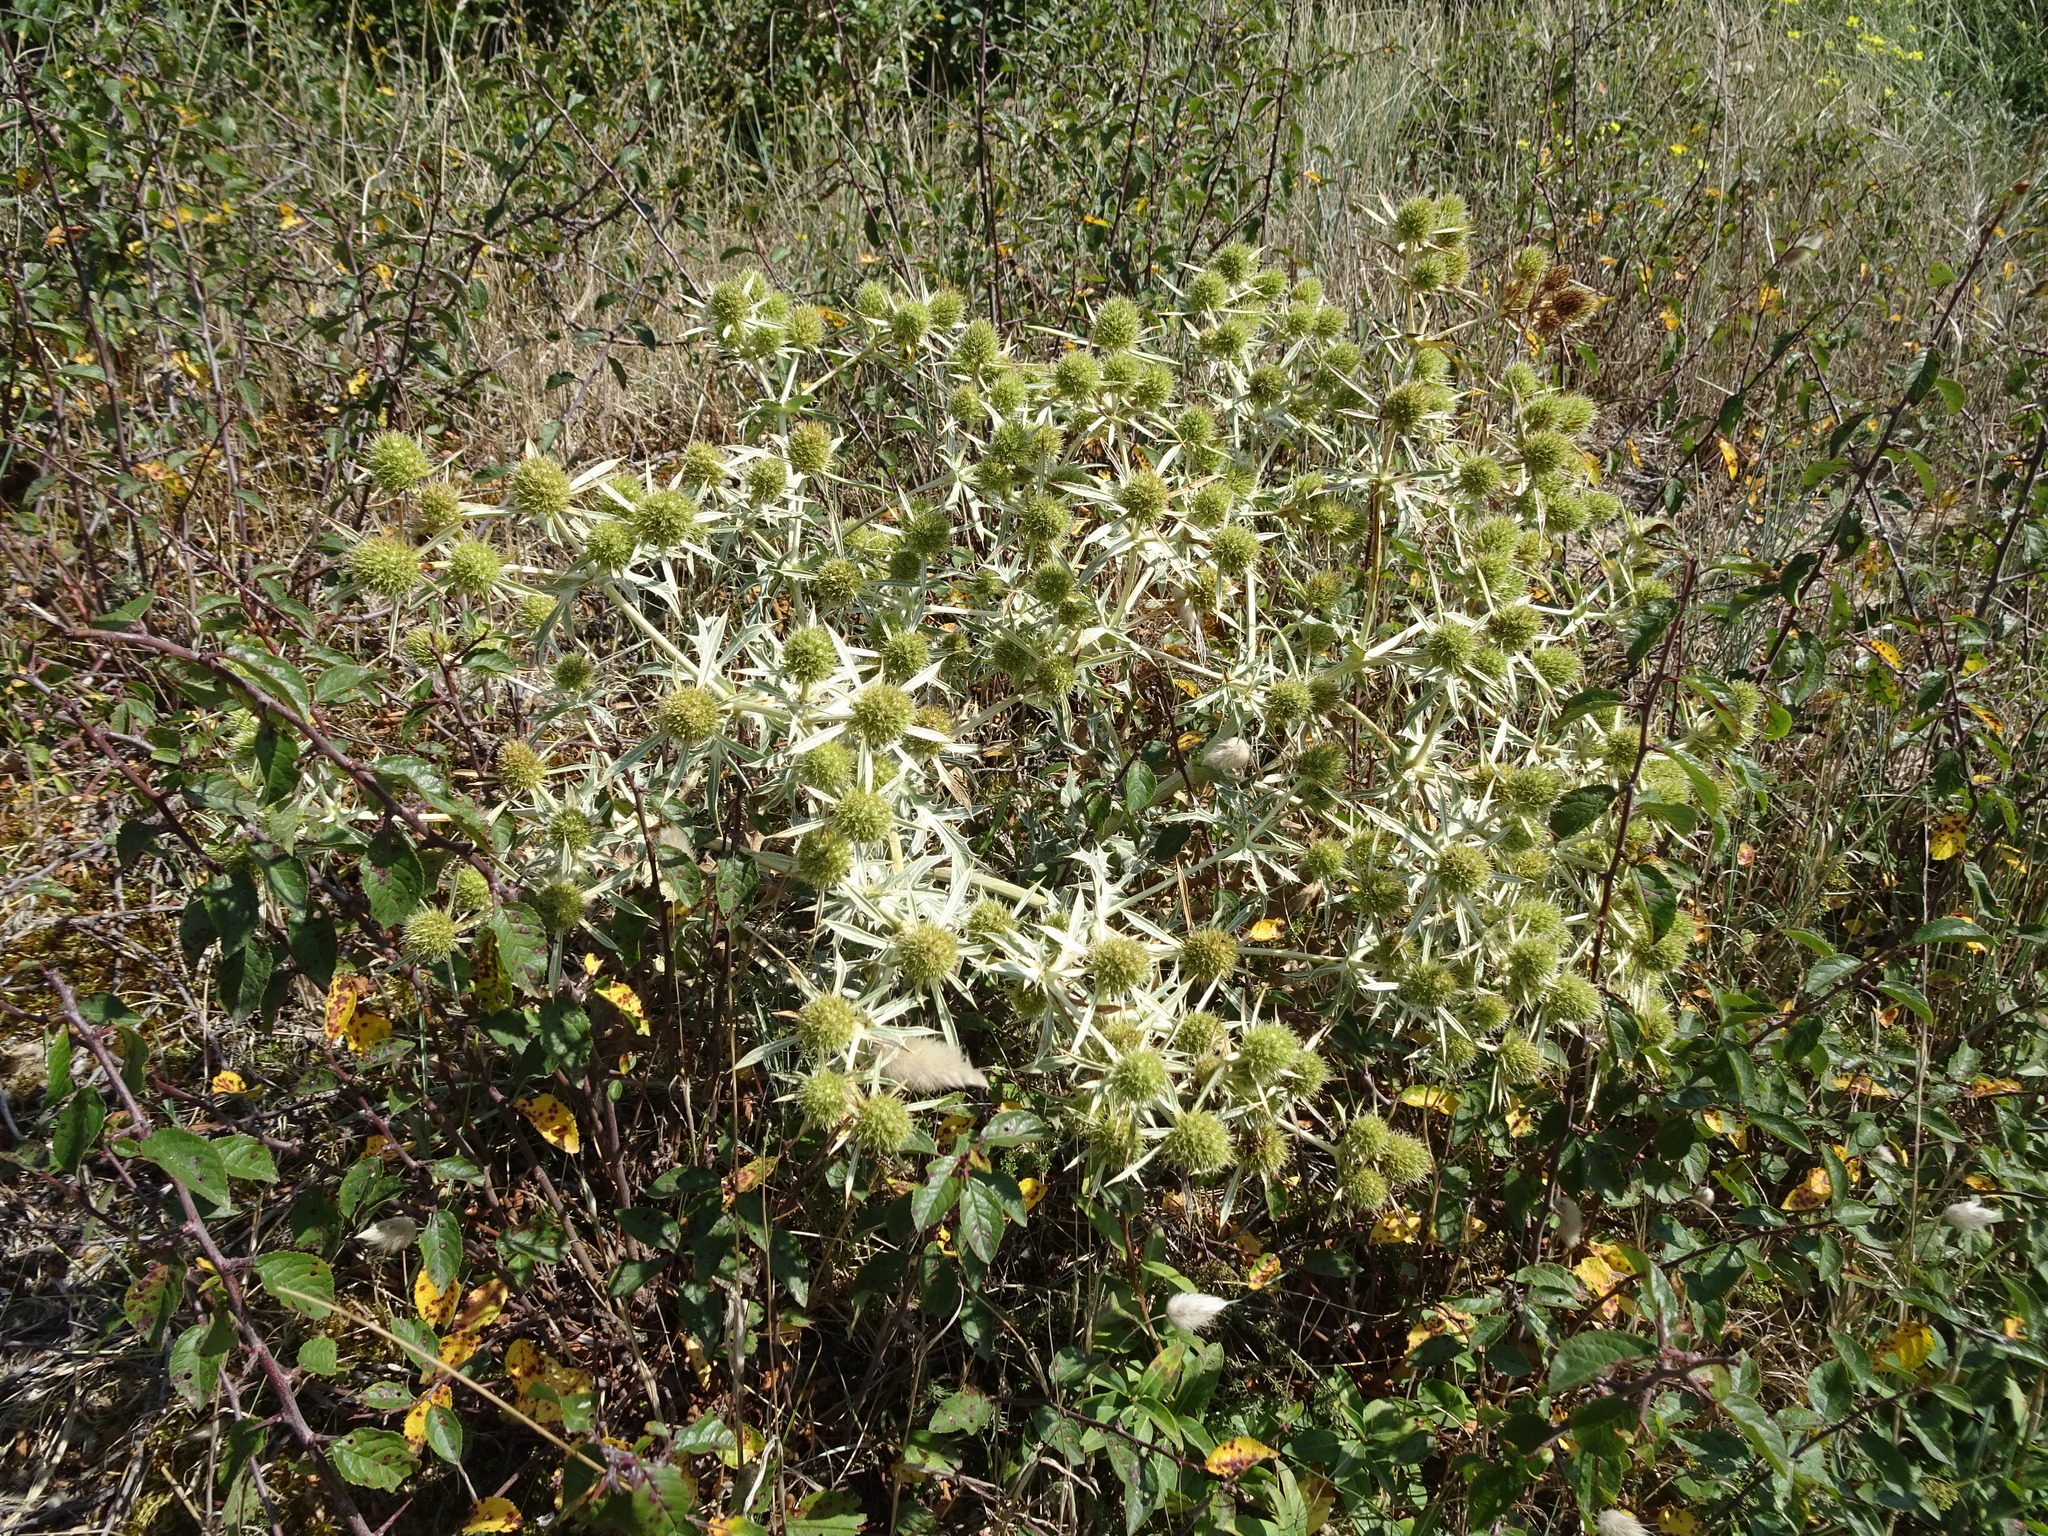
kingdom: Plantae
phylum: Tracheophyta
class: Magnoliopsida
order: Apiales
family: Apiaceae
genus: Eryngium
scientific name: Eryngium campestre
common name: Field eryngo
